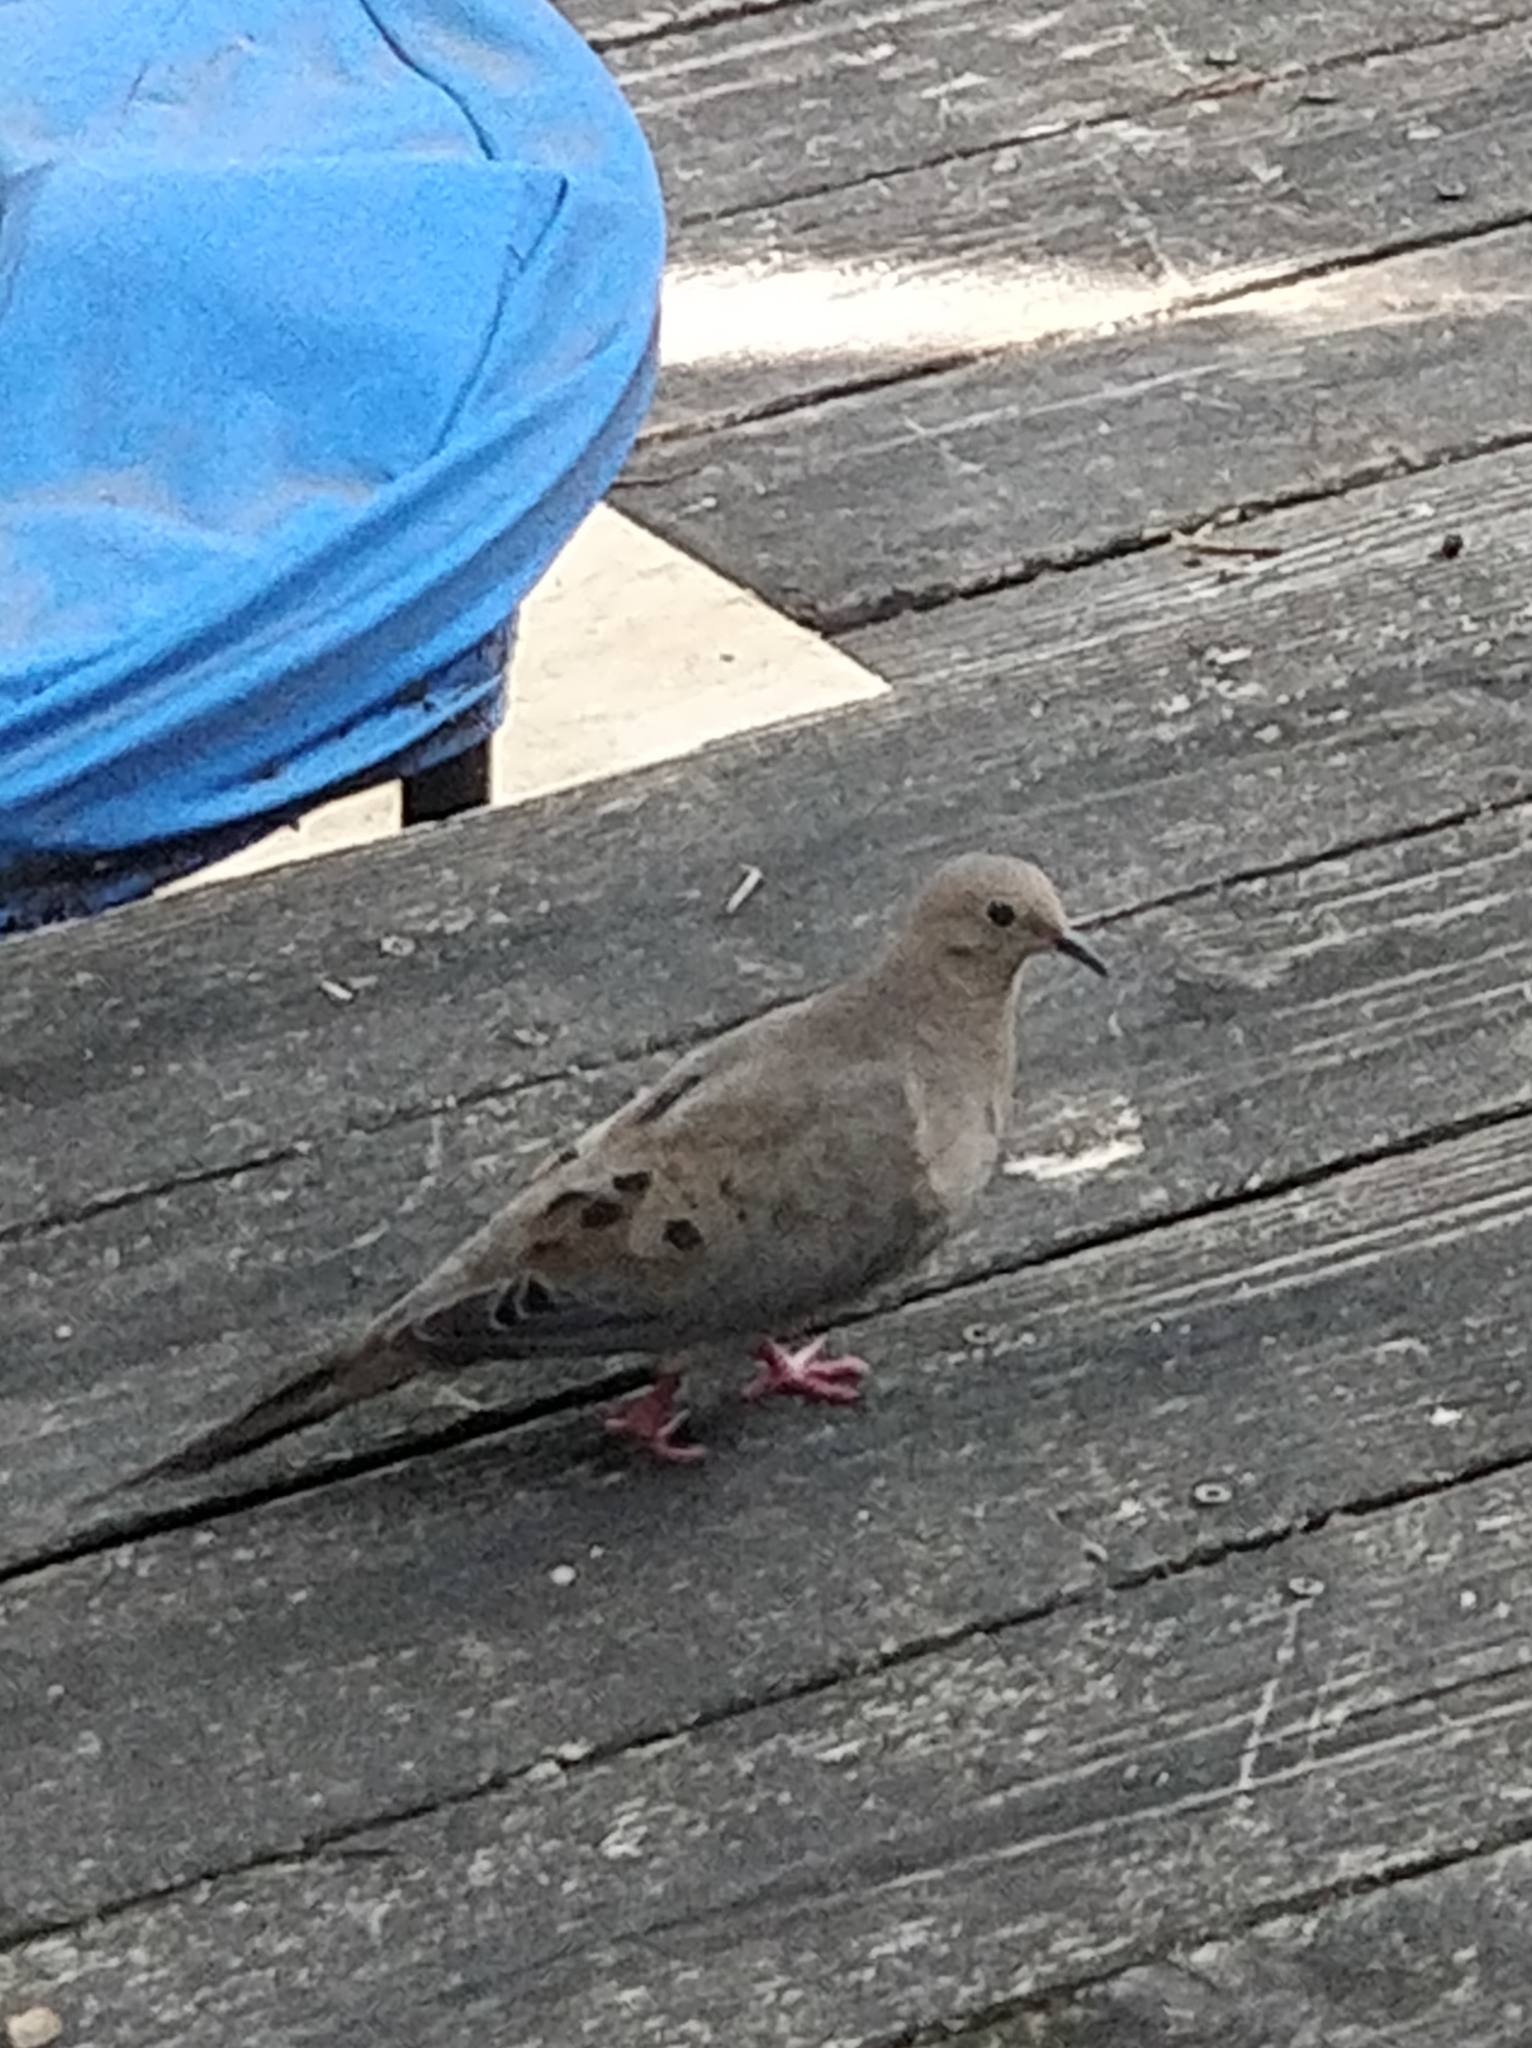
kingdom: Animalia
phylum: Chordata
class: Aves
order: Columbiformes
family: Columbidae
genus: Zenaida
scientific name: Zenaida macroura
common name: Mourning dove
